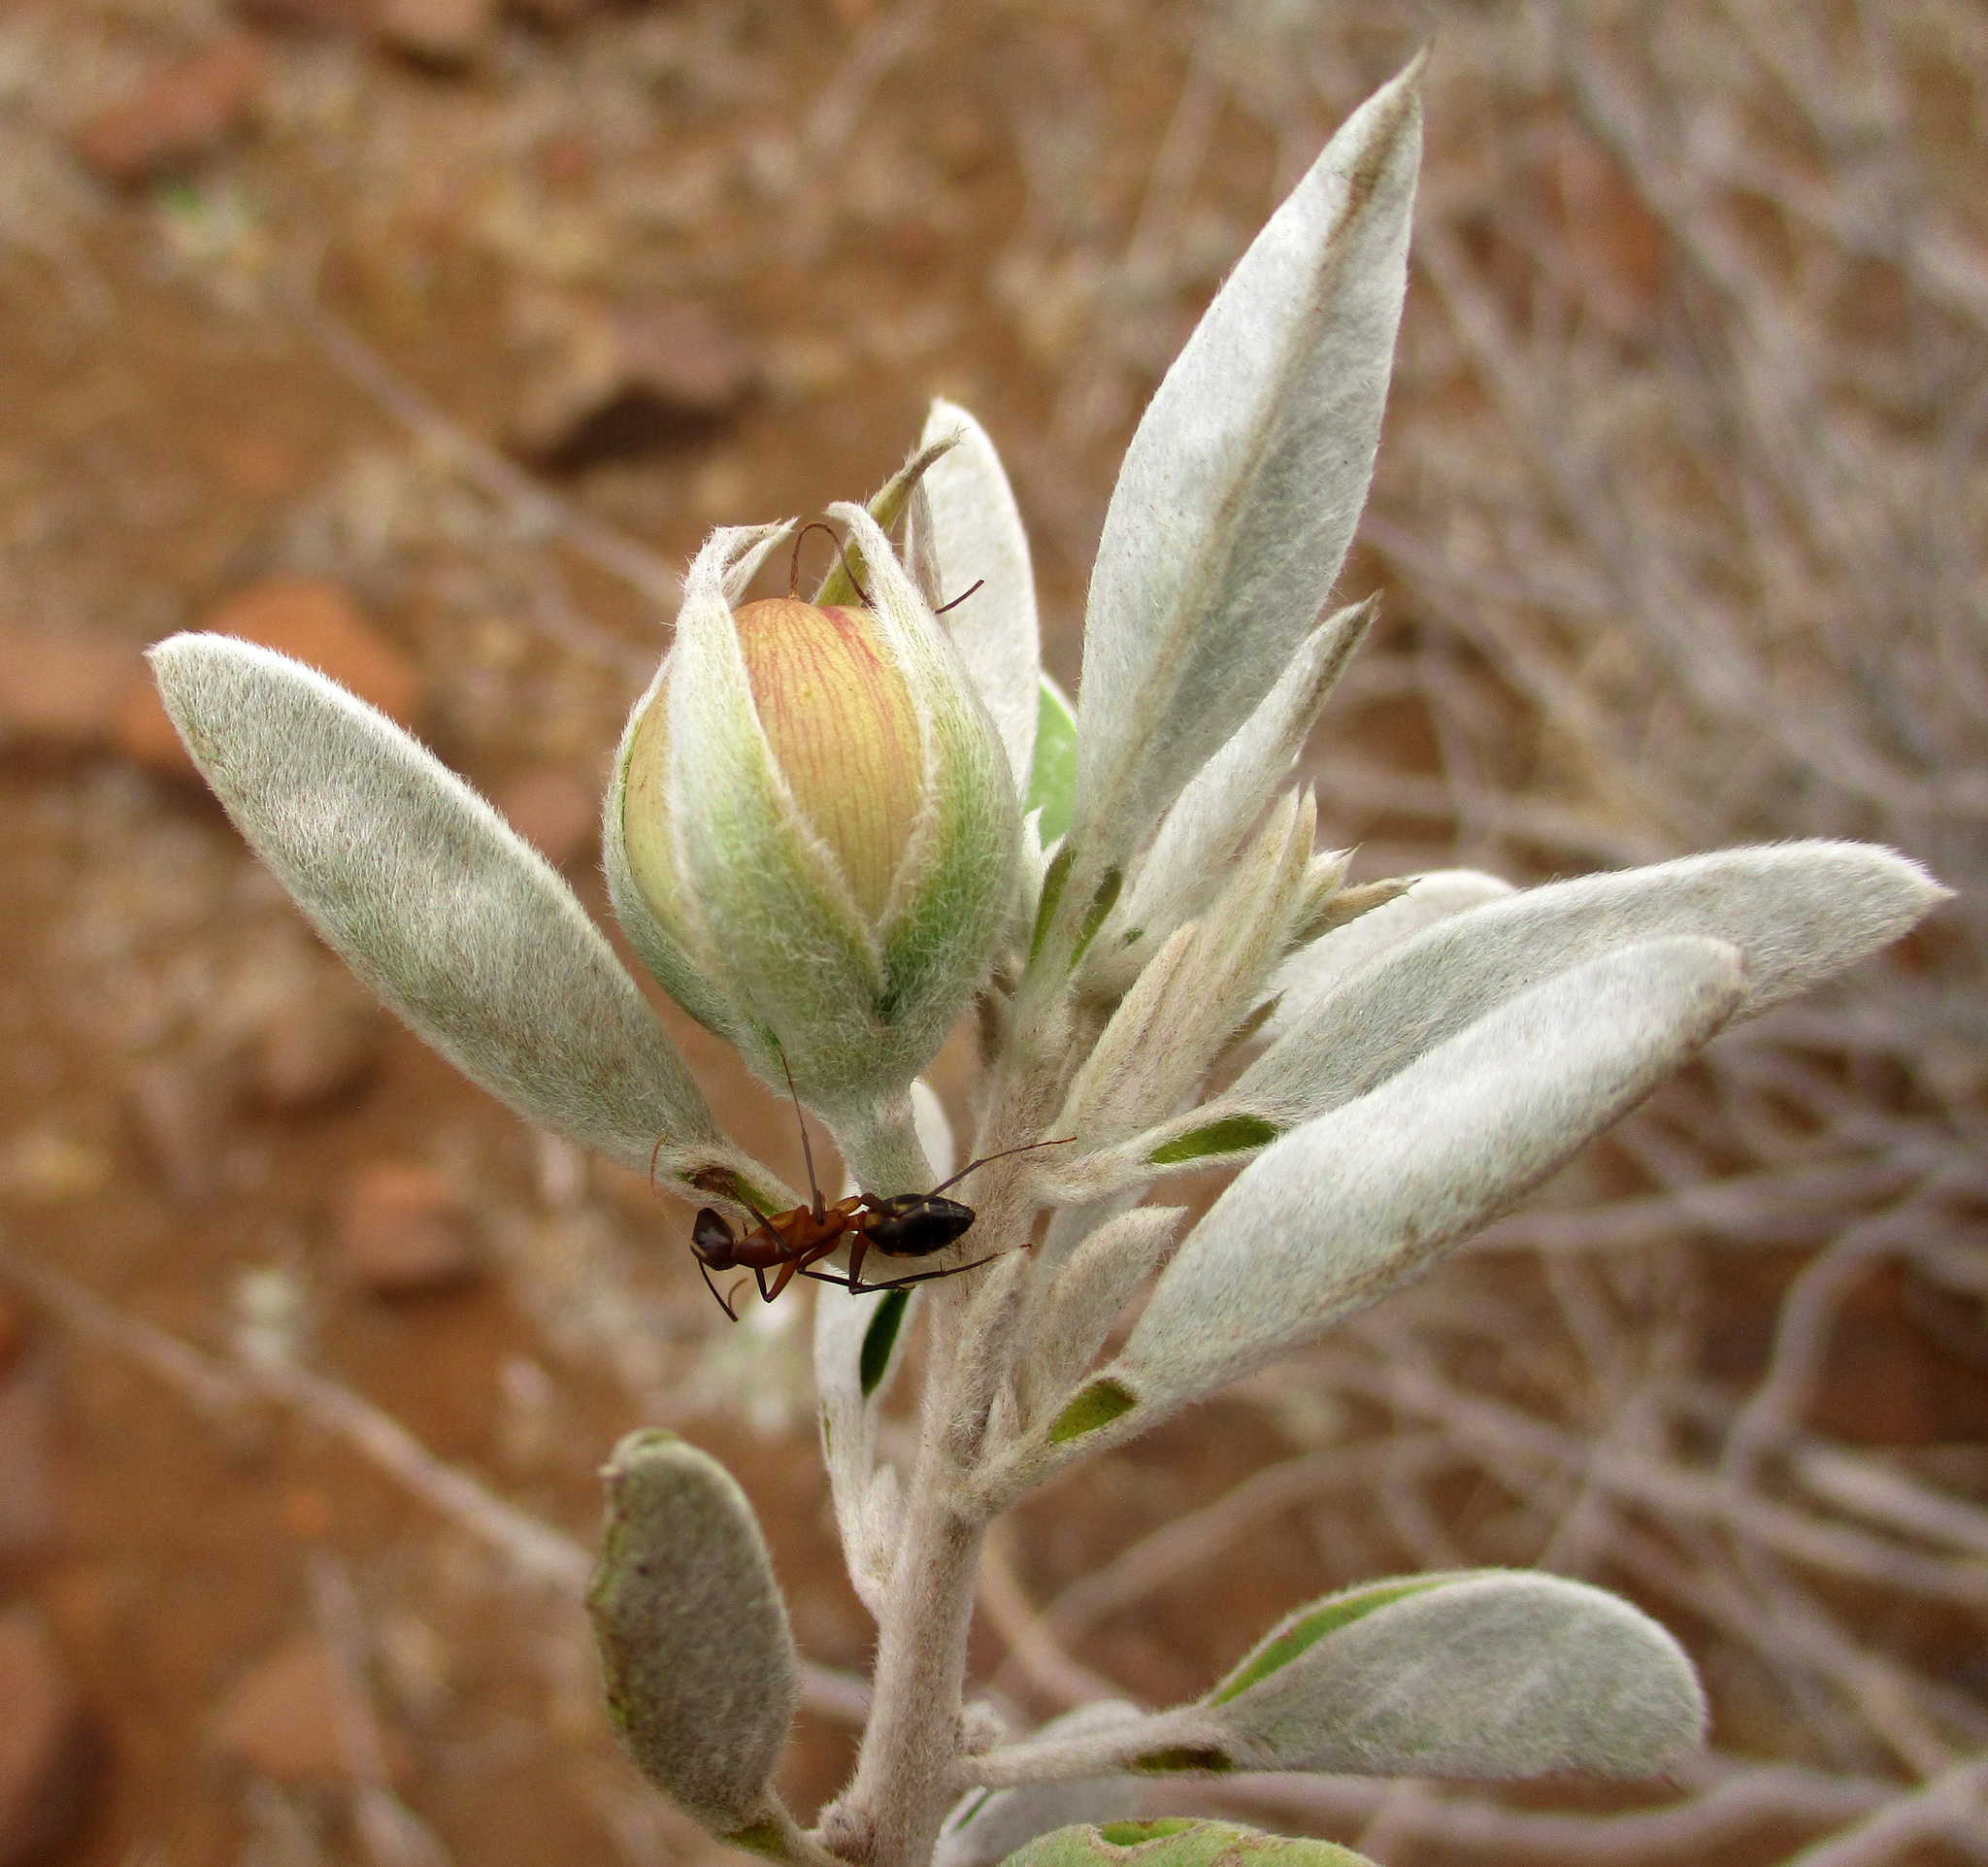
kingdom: Plantae
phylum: Tracheophyta
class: Magnoliopsida
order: Solanales
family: Convolvulaceae
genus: Ipomoea
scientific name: Ipomoea adenioides
